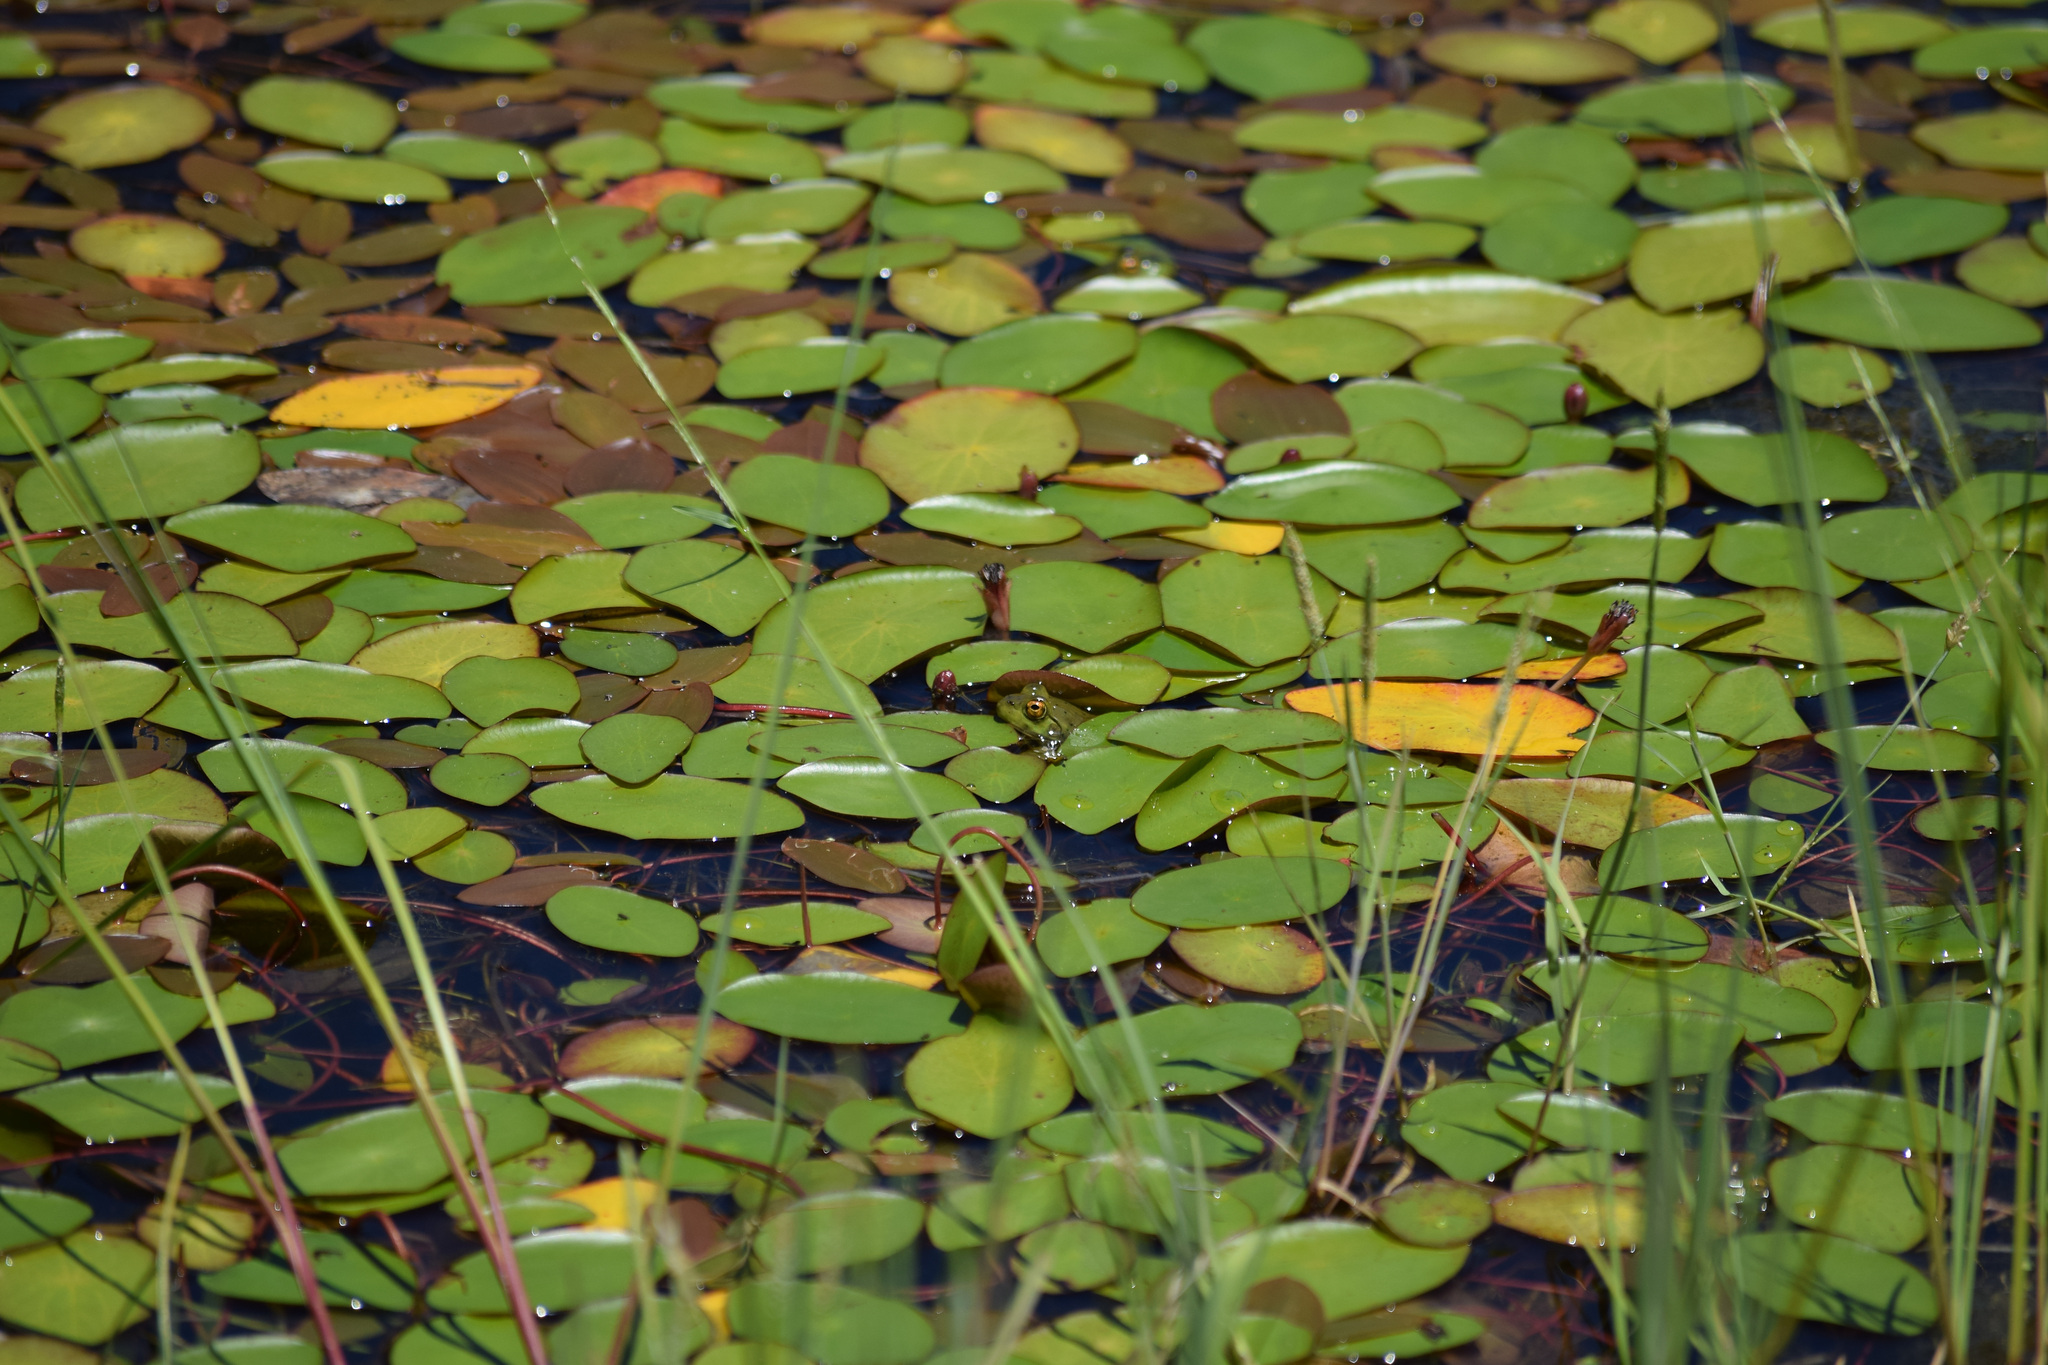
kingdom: Animalia
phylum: Chordata
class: Amphibia
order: Anura
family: Ranidae
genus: Lithobates
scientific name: Lithobates catesbeianus
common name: American bullfrog
